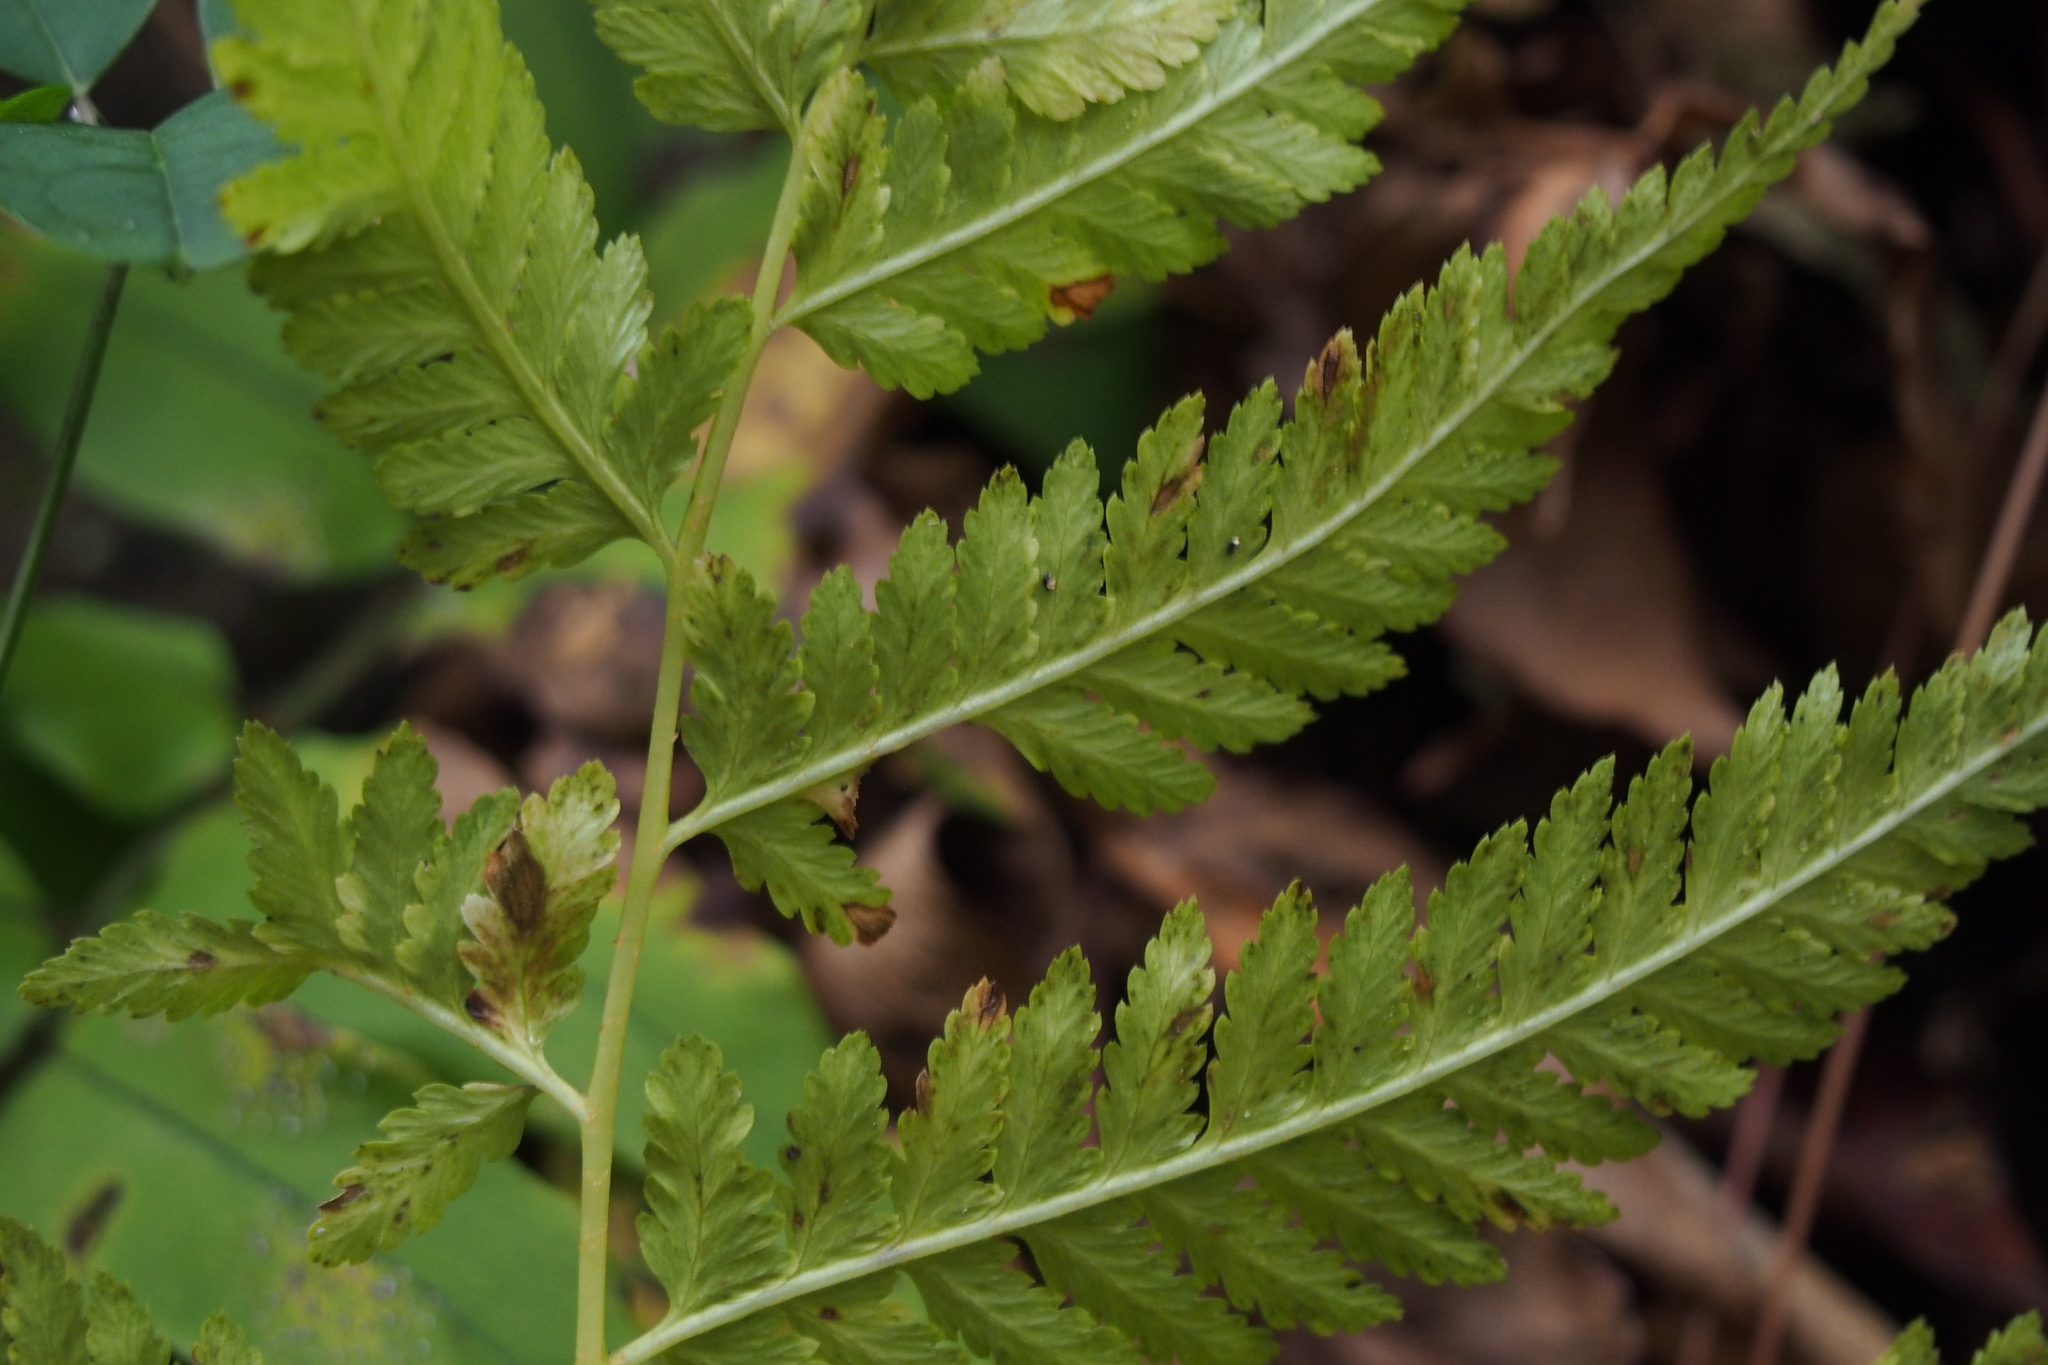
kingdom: Plantae
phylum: Tracheophyta
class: Polypodiopsida
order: Polypodiales
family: Athyriaceae
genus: Anisocampium
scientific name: Anisocampium niponicum
